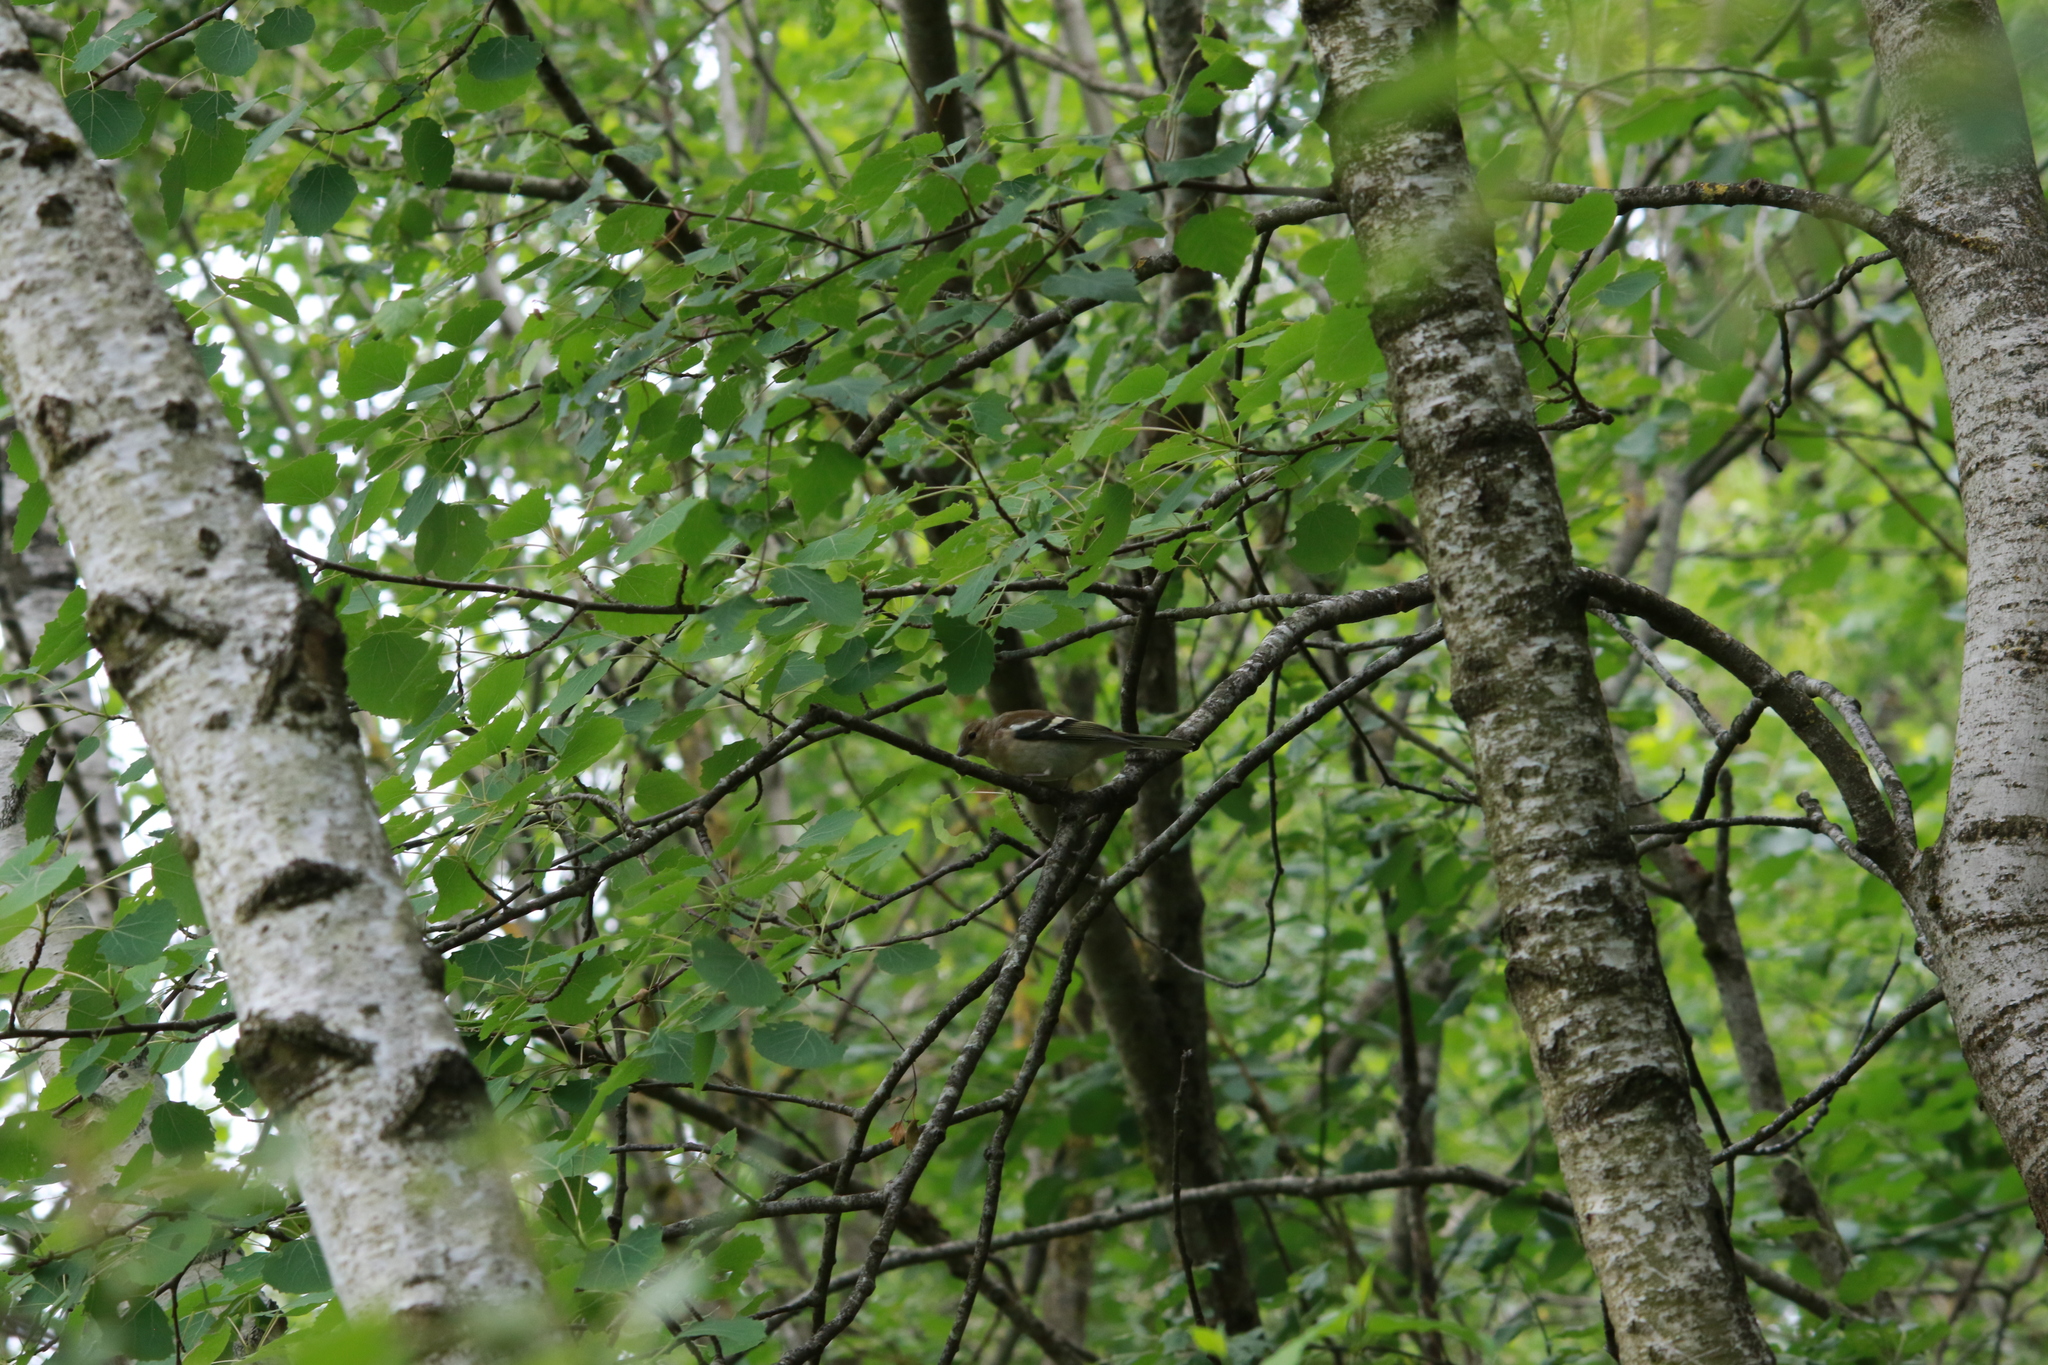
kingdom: Animalia
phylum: Chordata
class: Aves
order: Passeriformes
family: Fringillidae
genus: Fringilla
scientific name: Fringilla coelebs
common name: Common chaffinch
